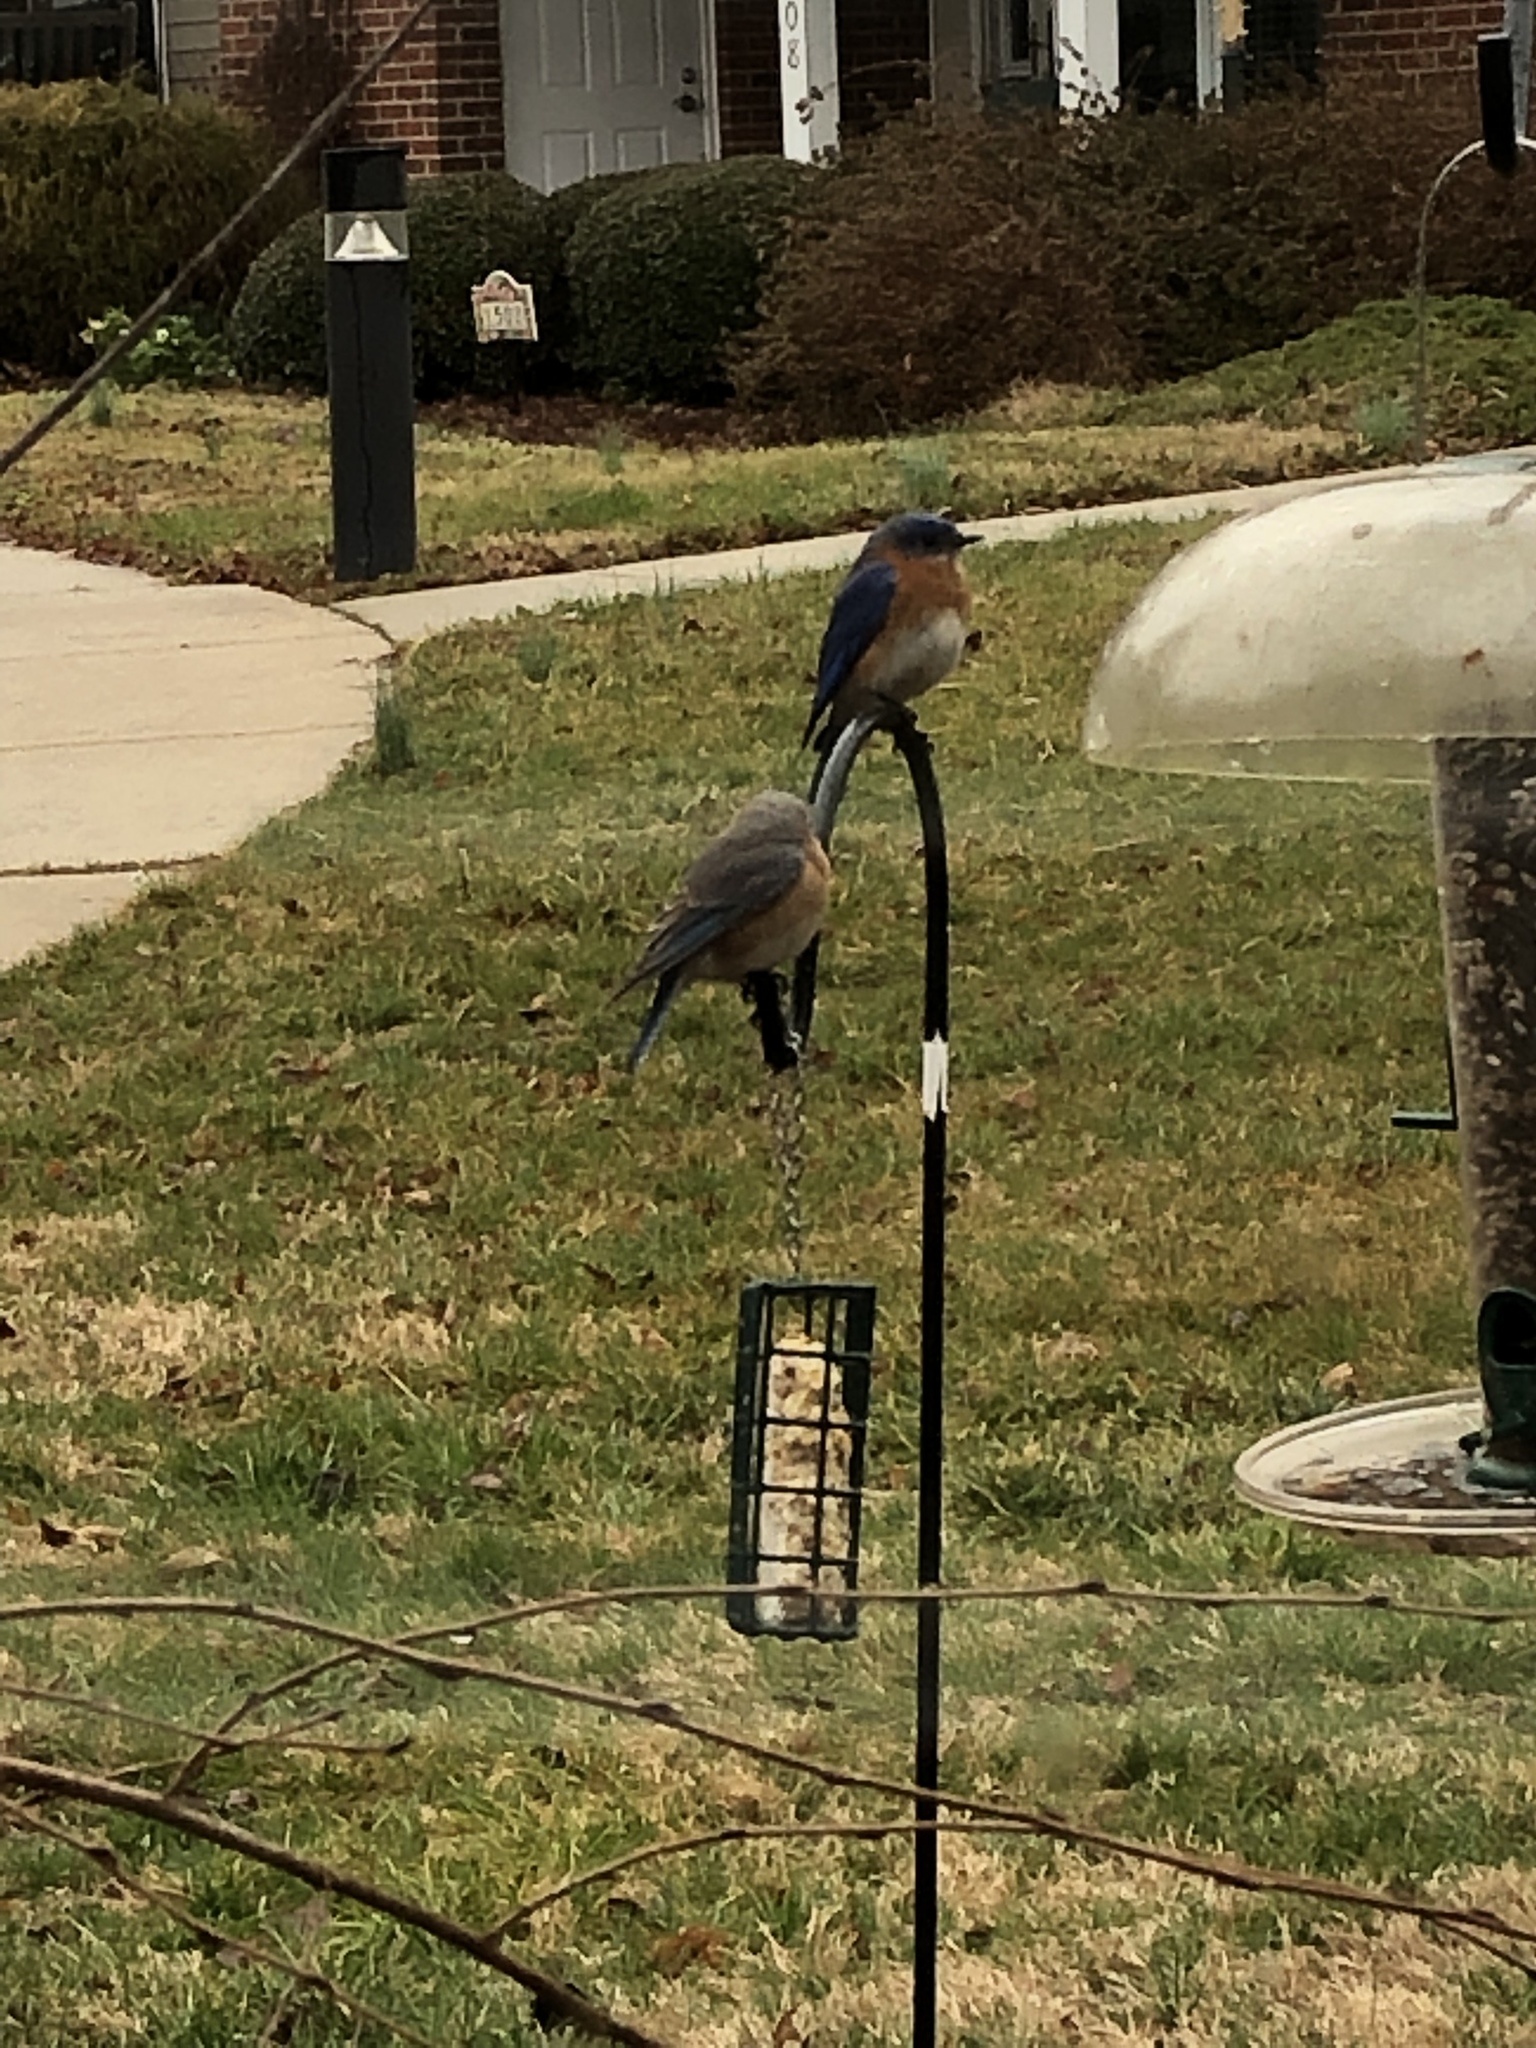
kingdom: Animalia
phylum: Chordata
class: Aves
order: Passeriformes
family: Turdidae
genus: Sialia
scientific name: Sialia sialis
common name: Eastern bluebird
